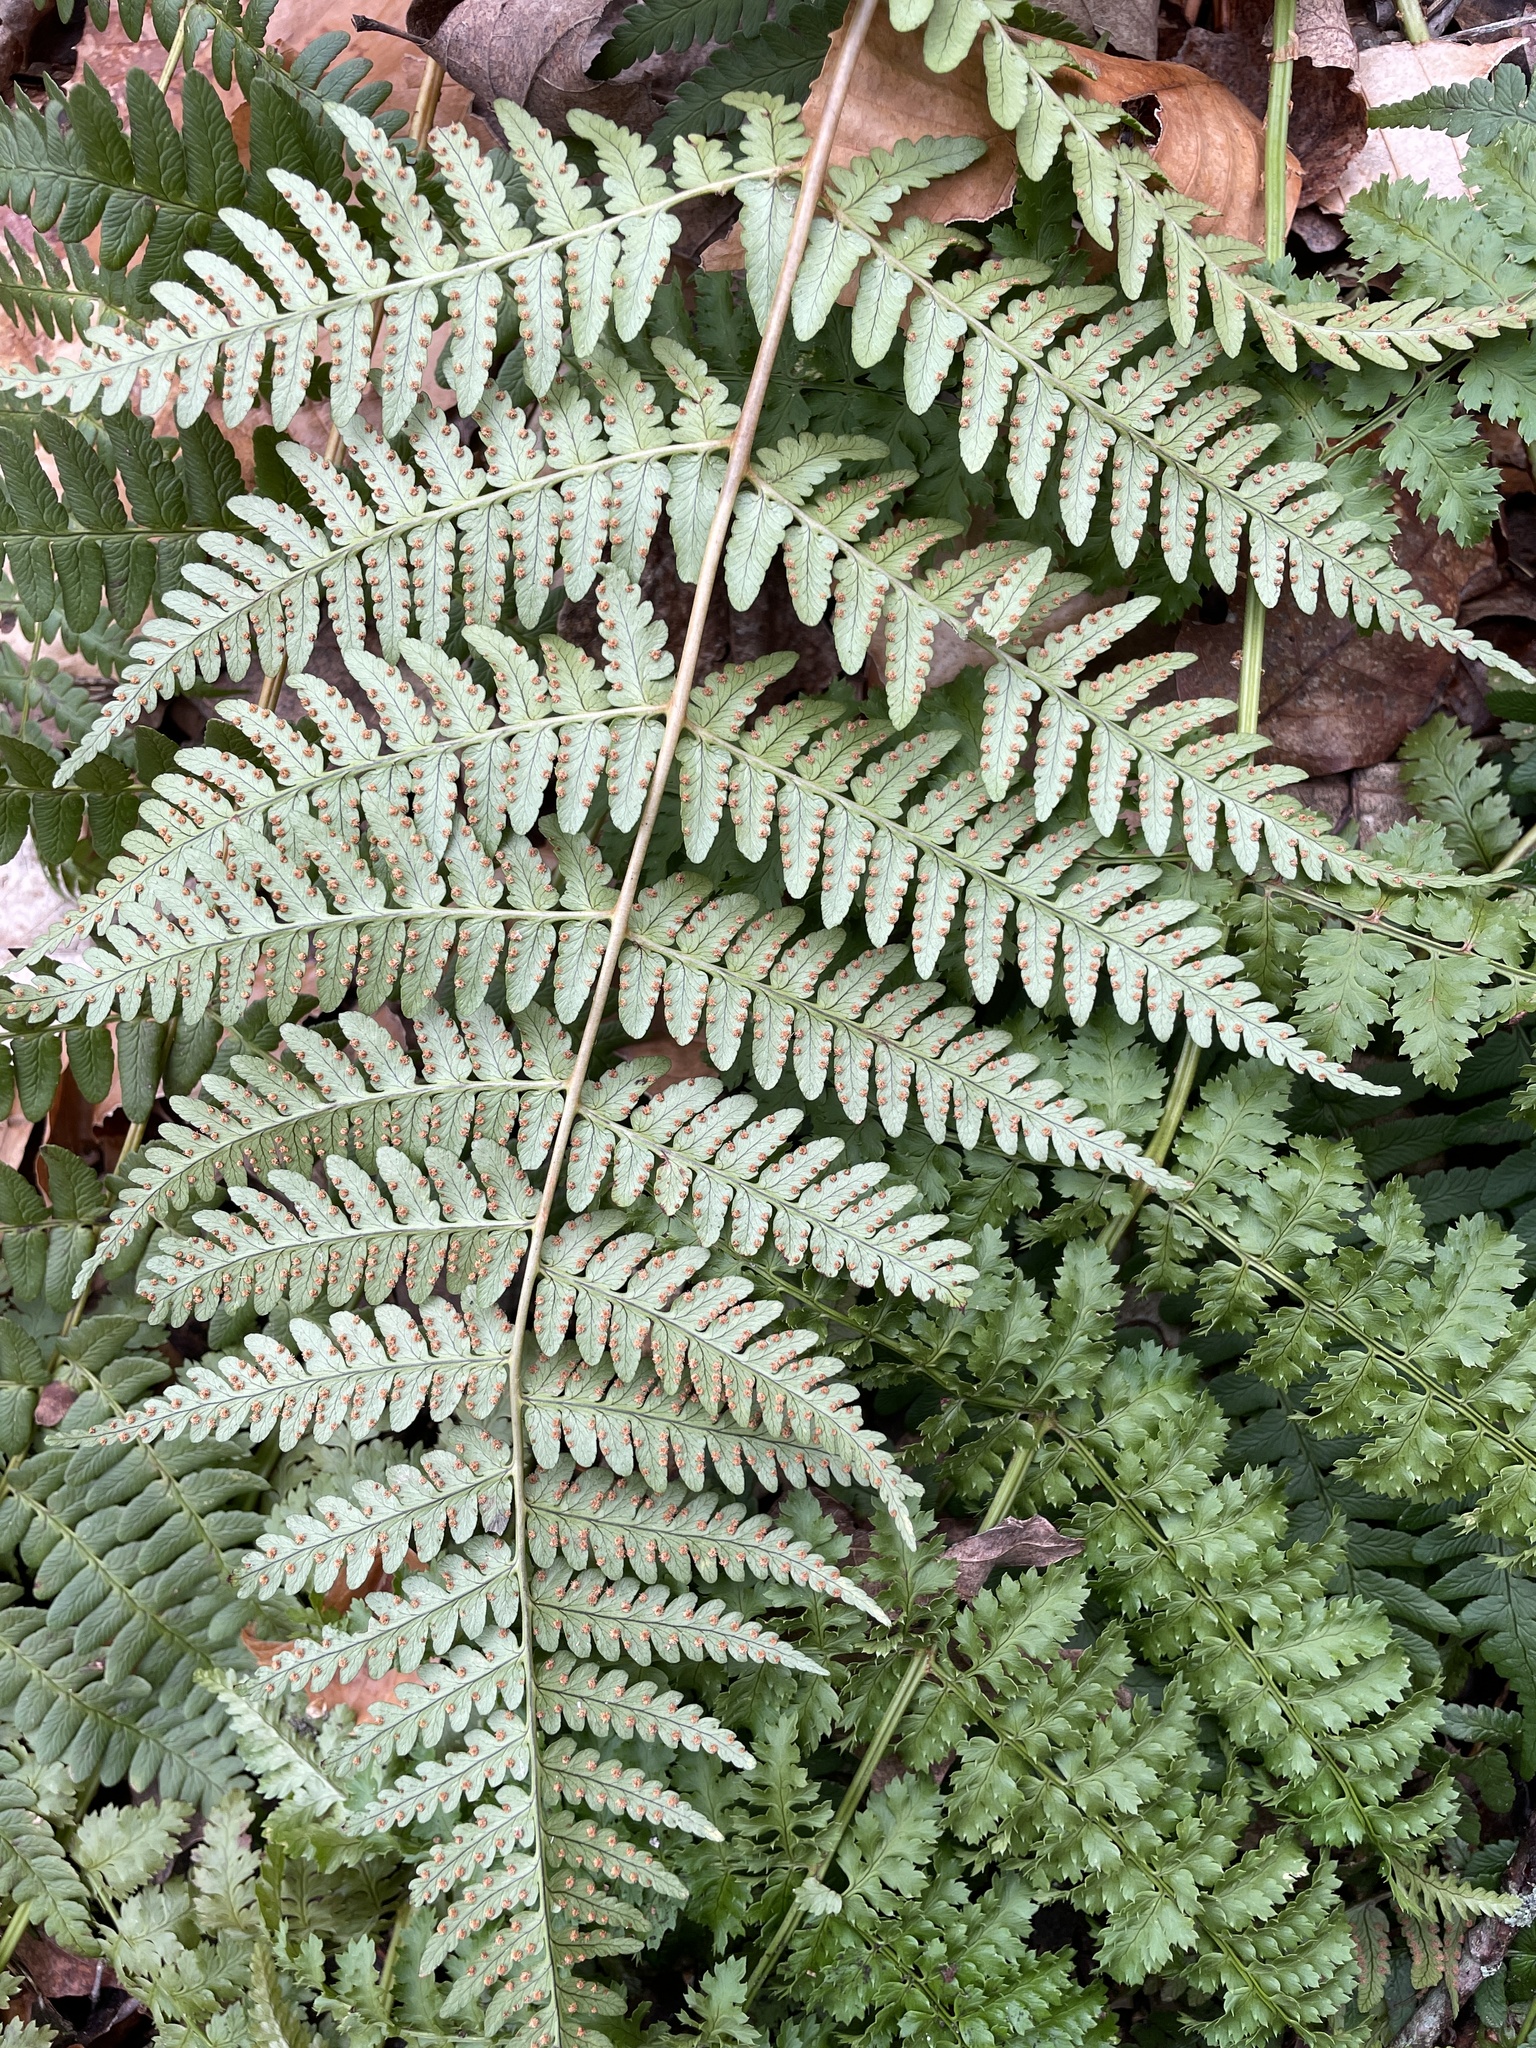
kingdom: Plantae
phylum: Tracheophyta
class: Polypodiopsida
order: Polypodiales
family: Dryopteridaceae
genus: Dryopteris
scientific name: Dryopteris marginalis
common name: Marginal wood fern
